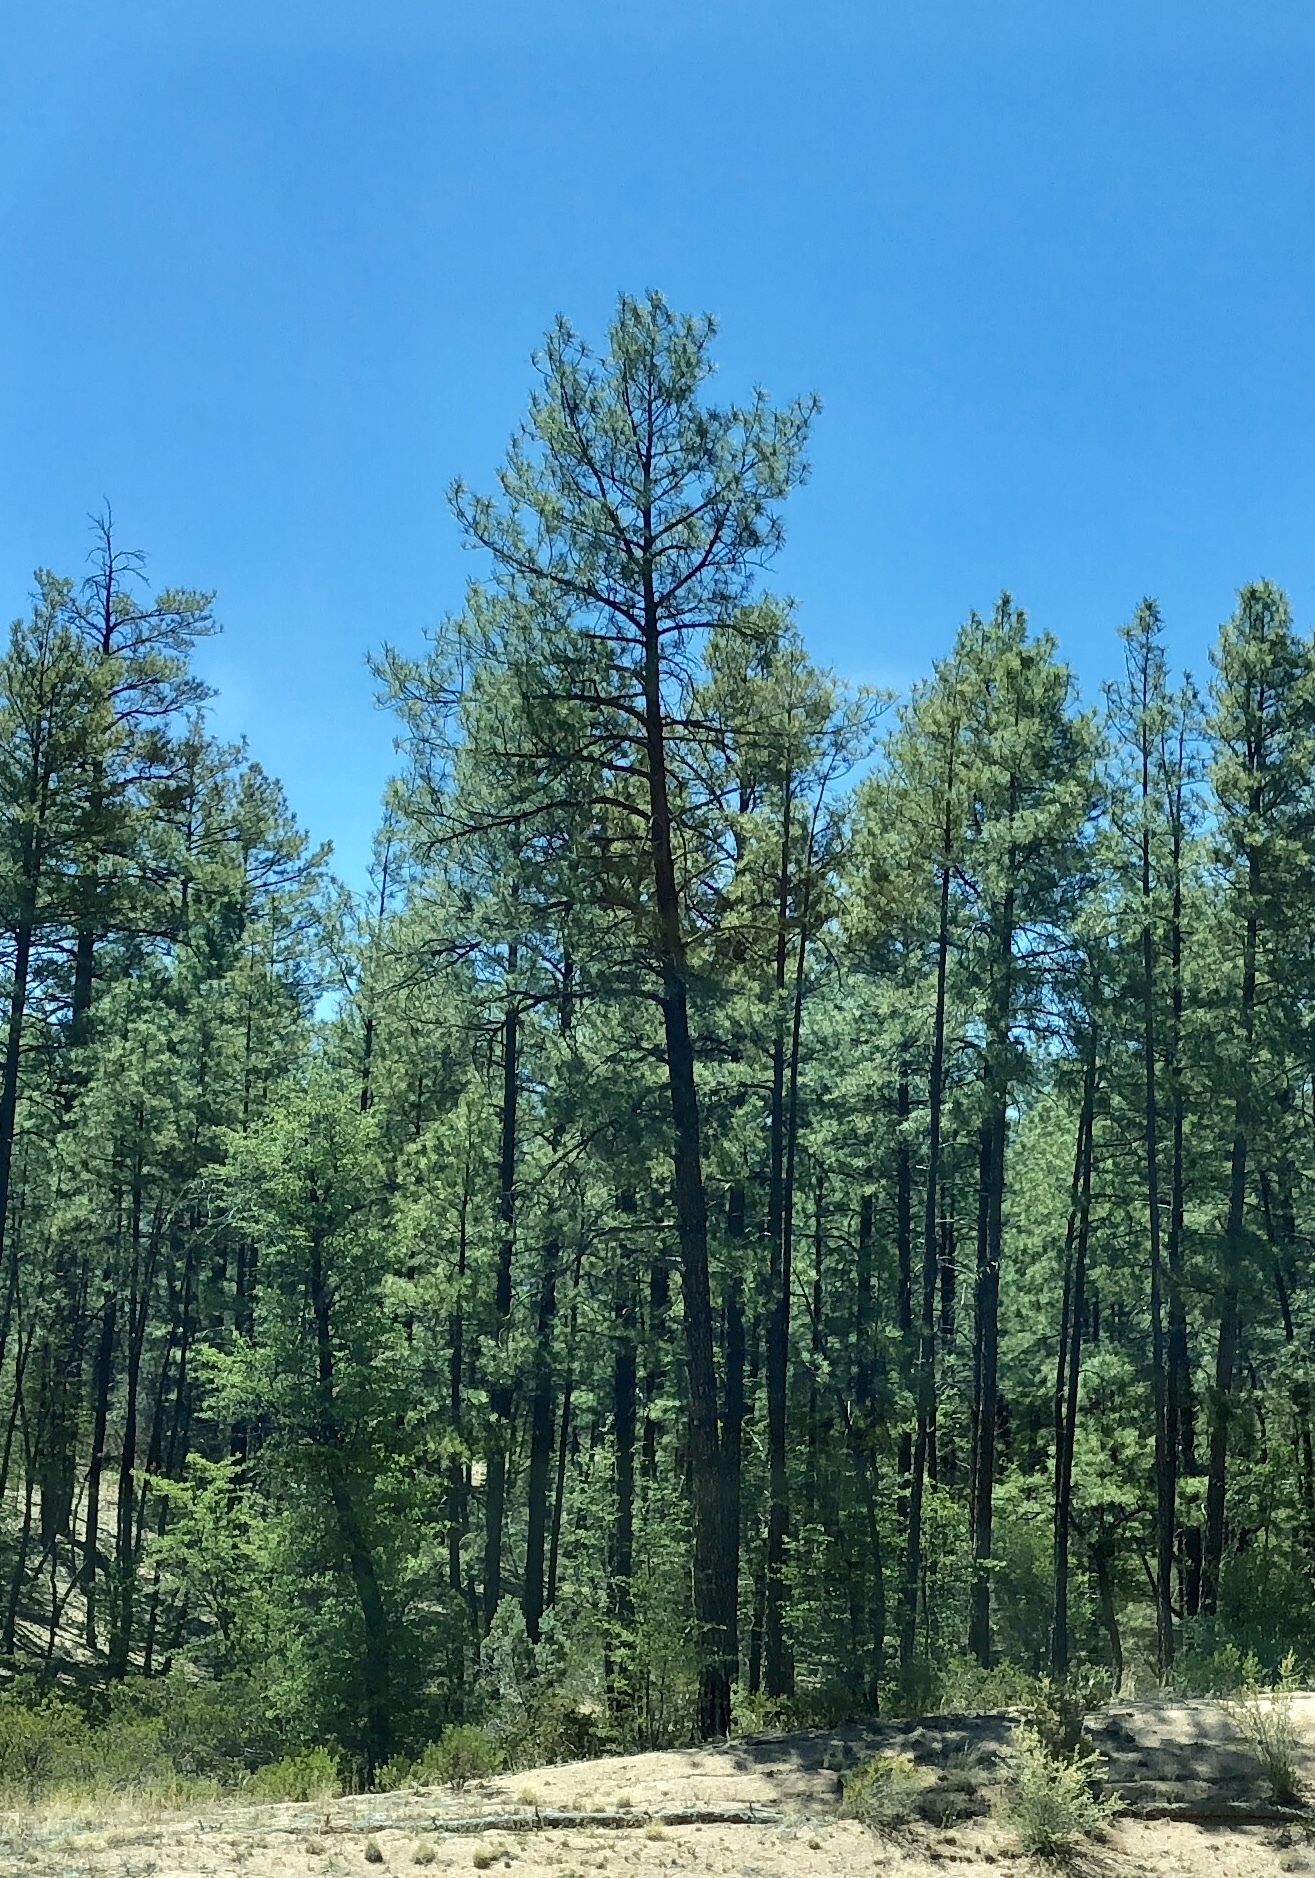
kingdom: Plantae
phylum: Tracheophyta
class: Pinopsida
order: Pinales
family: Pinaceae
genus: Pinus
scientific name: Pinus ponderosa
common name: Western yellow-pine
